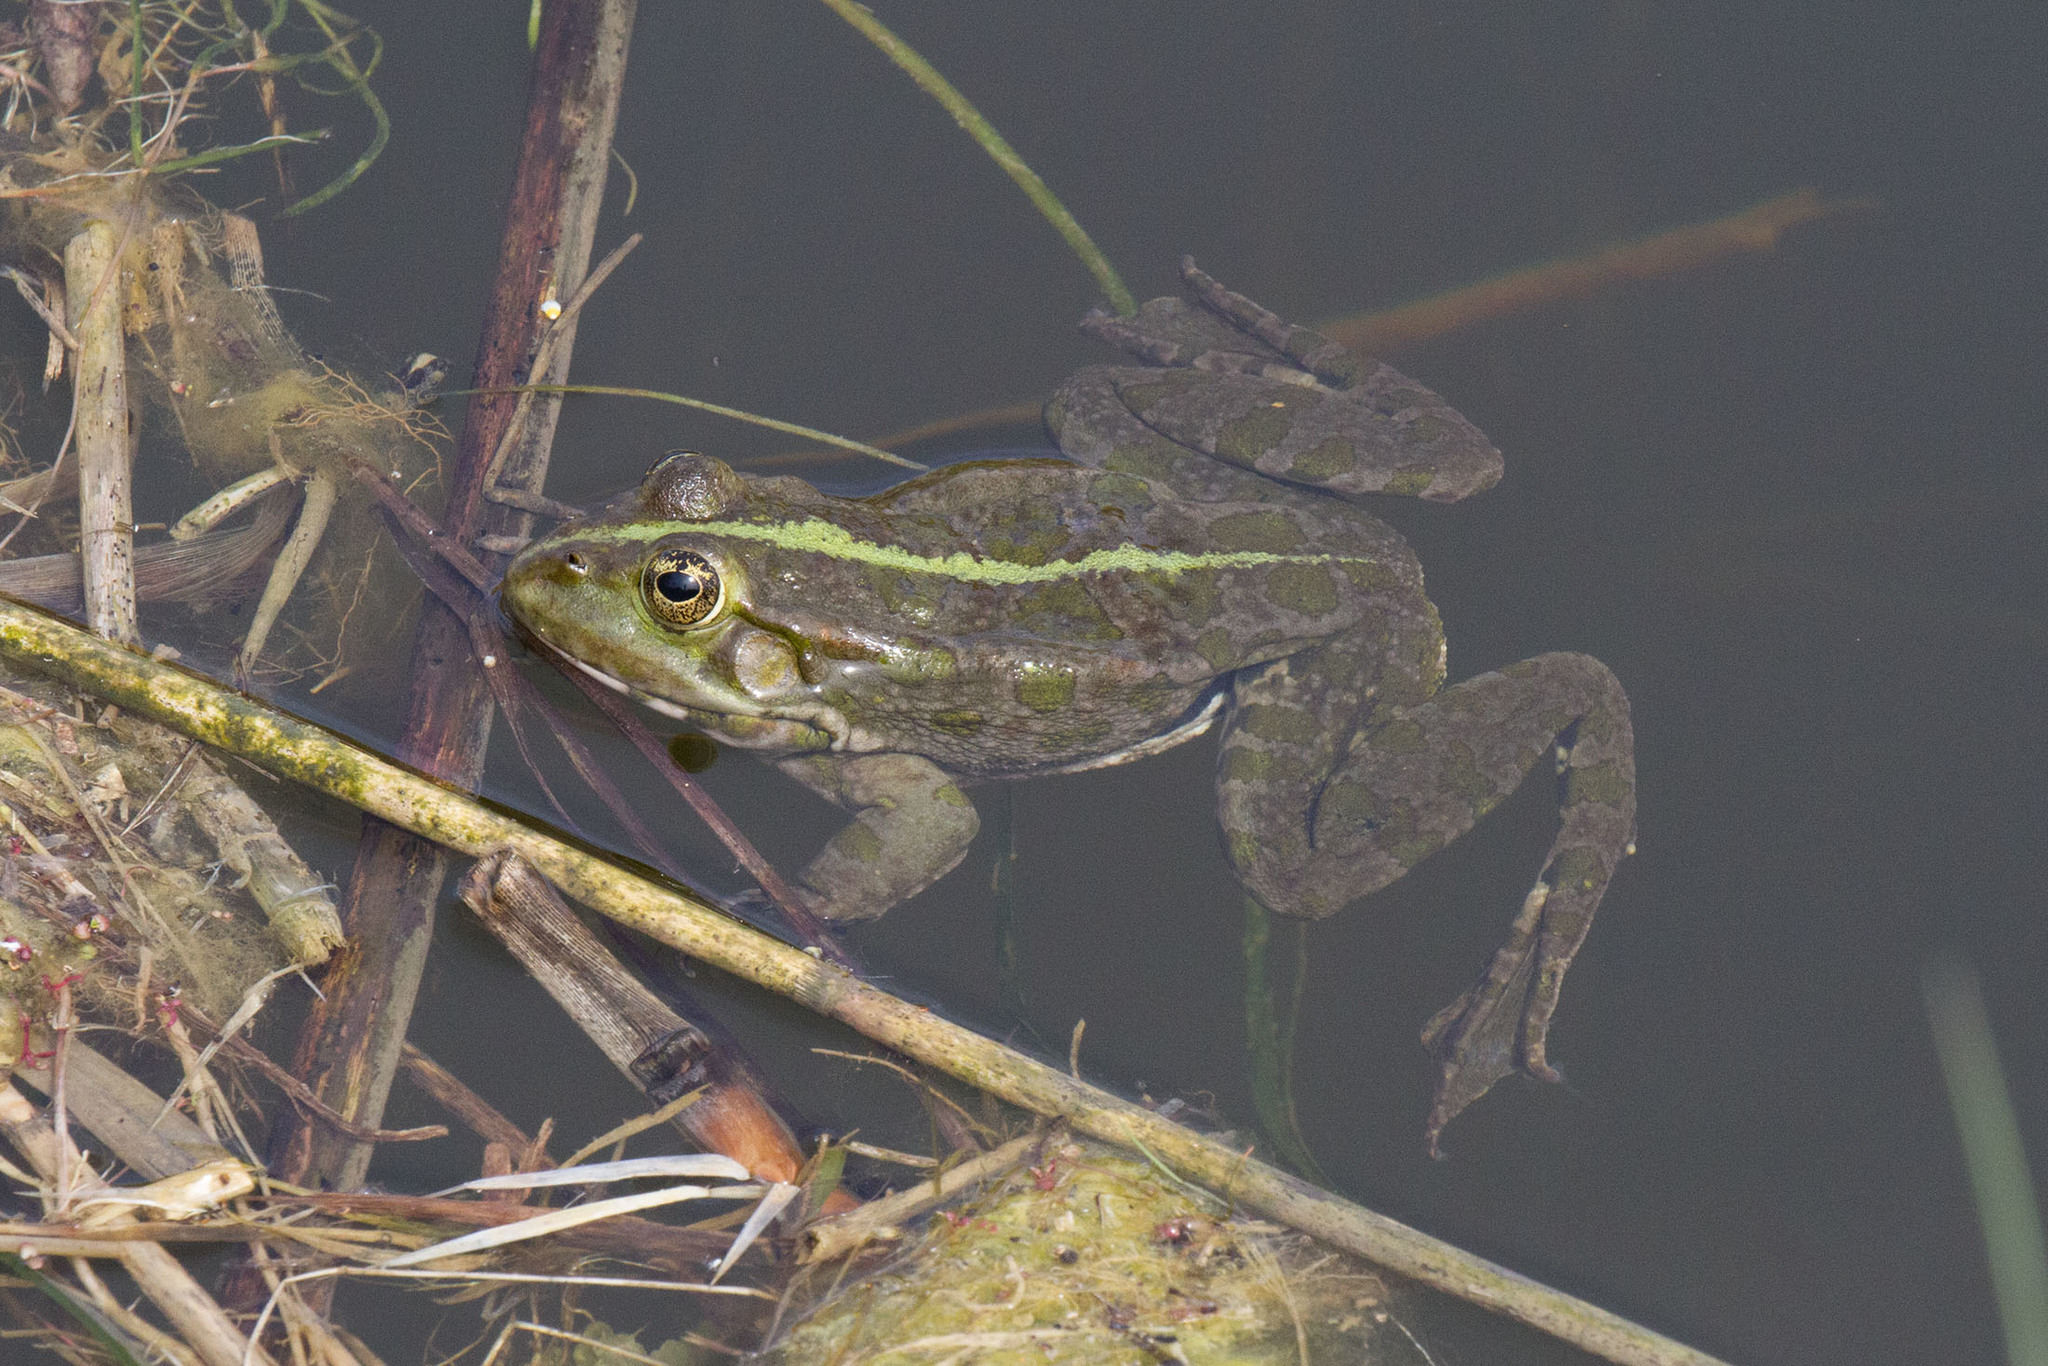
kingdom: Animalia
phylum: Chordata
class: Amphibia
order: Anura
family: Ranidae
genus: Pelophylax
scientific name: Pelophylax ridibundus
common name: Marsh frog
